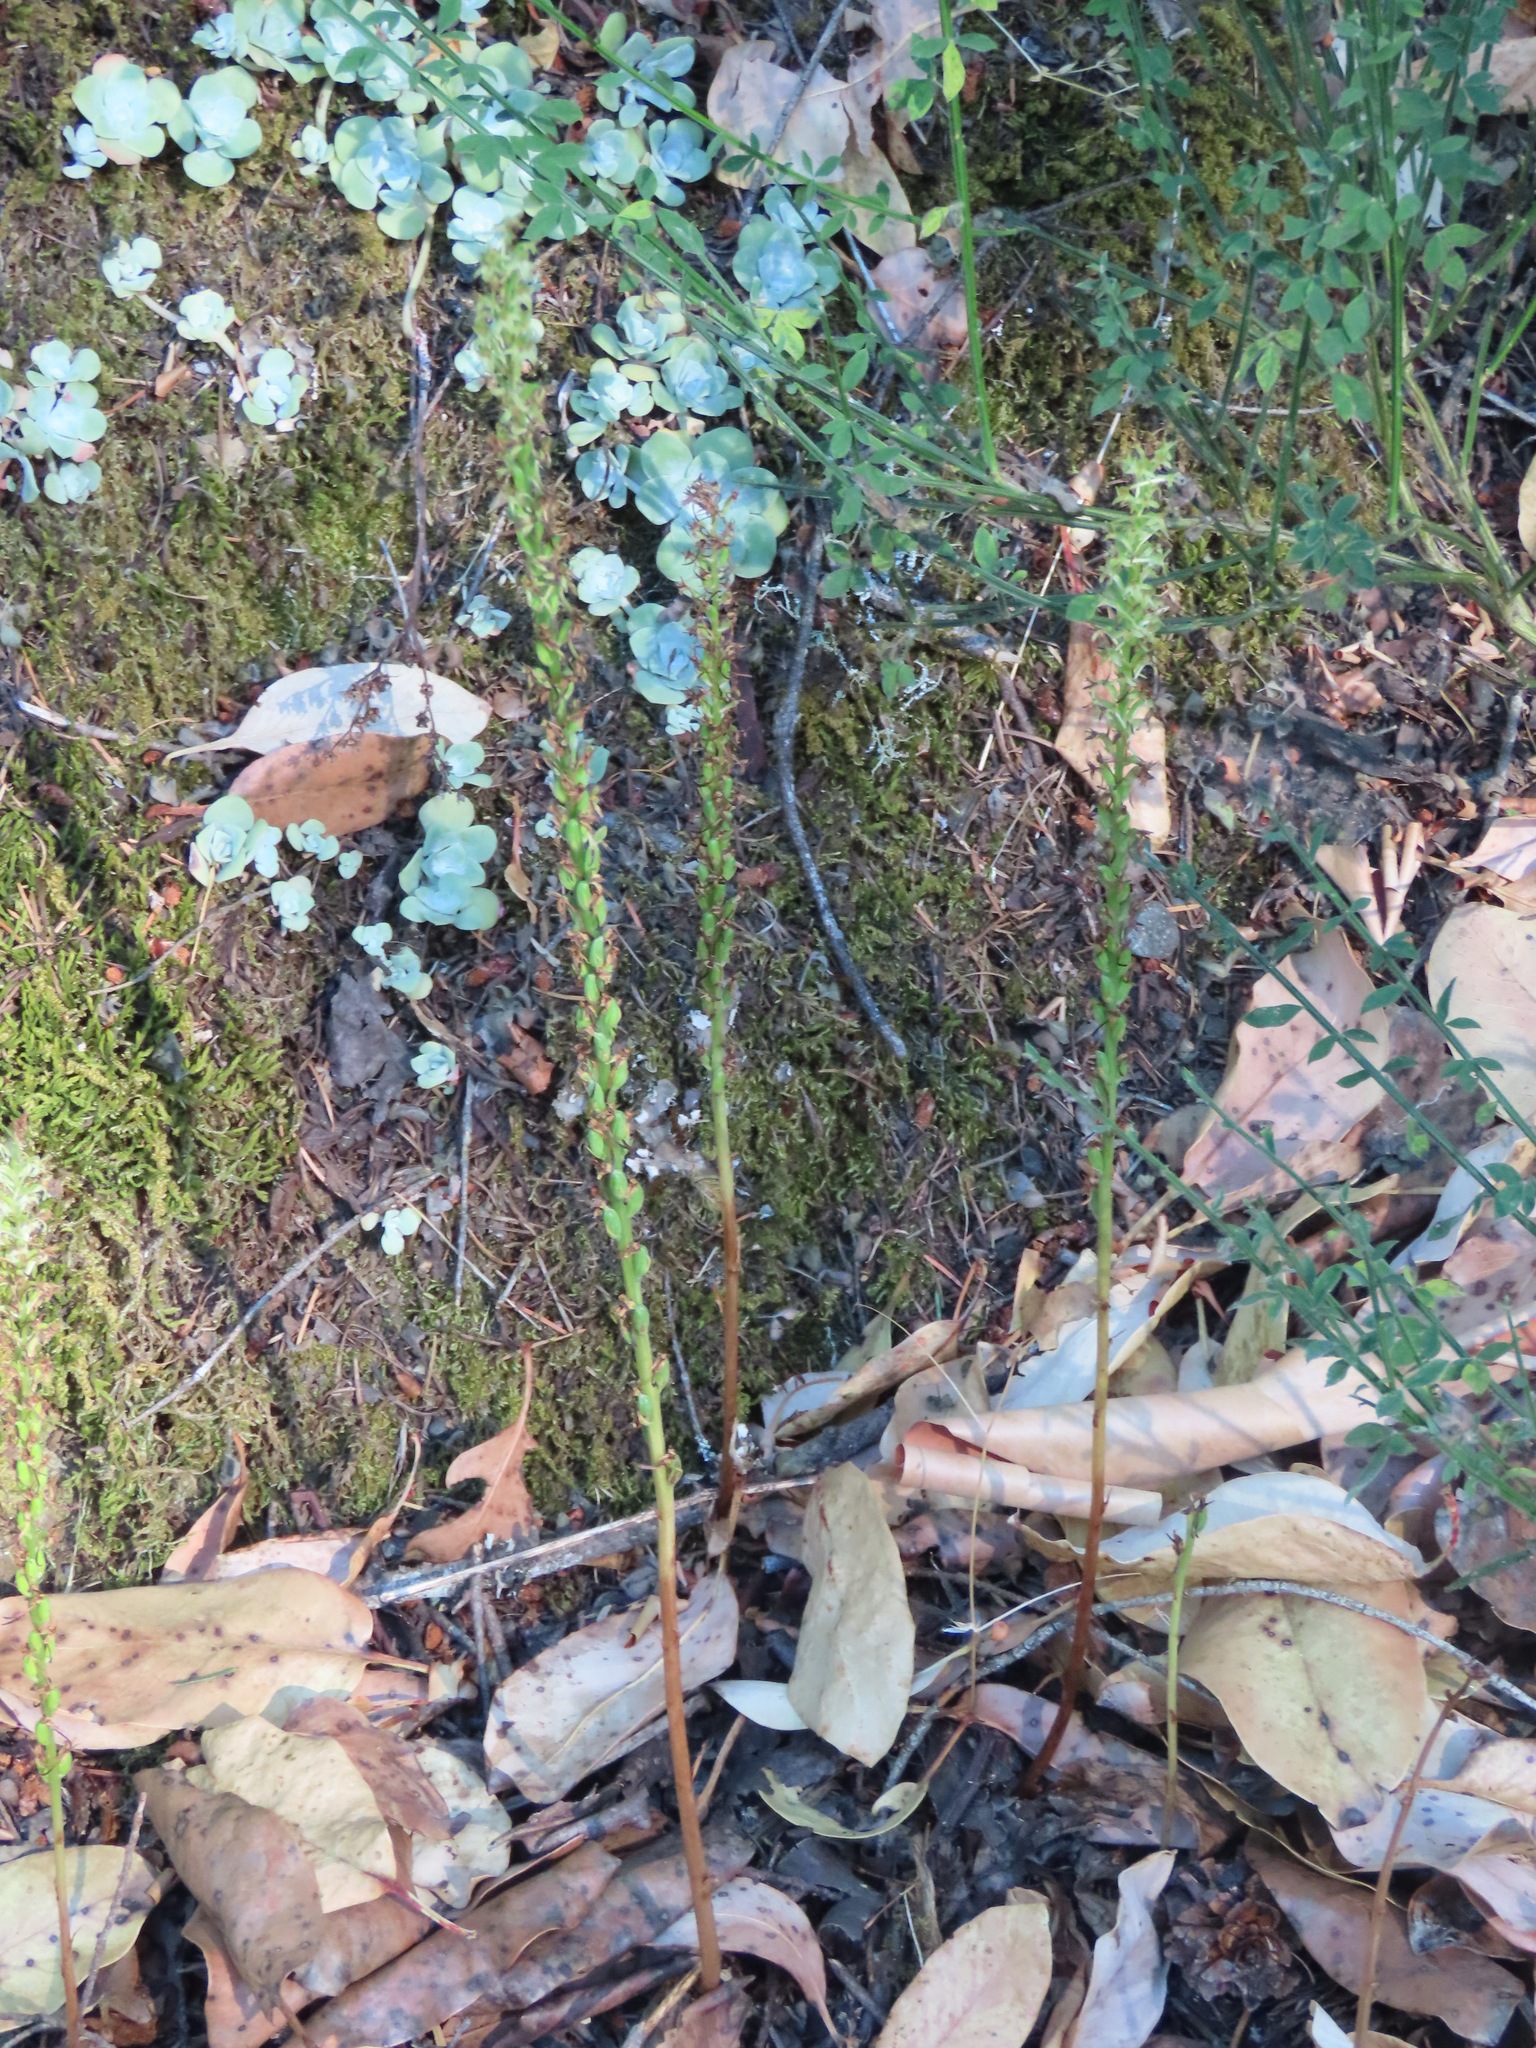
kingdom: Plantae
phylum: Tracheophyta
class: Liliopsida
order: Asparagales
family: Orchidaceae
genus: Platanthera
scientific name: Platanthera elongata
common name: Dense-flowered rein orchid
